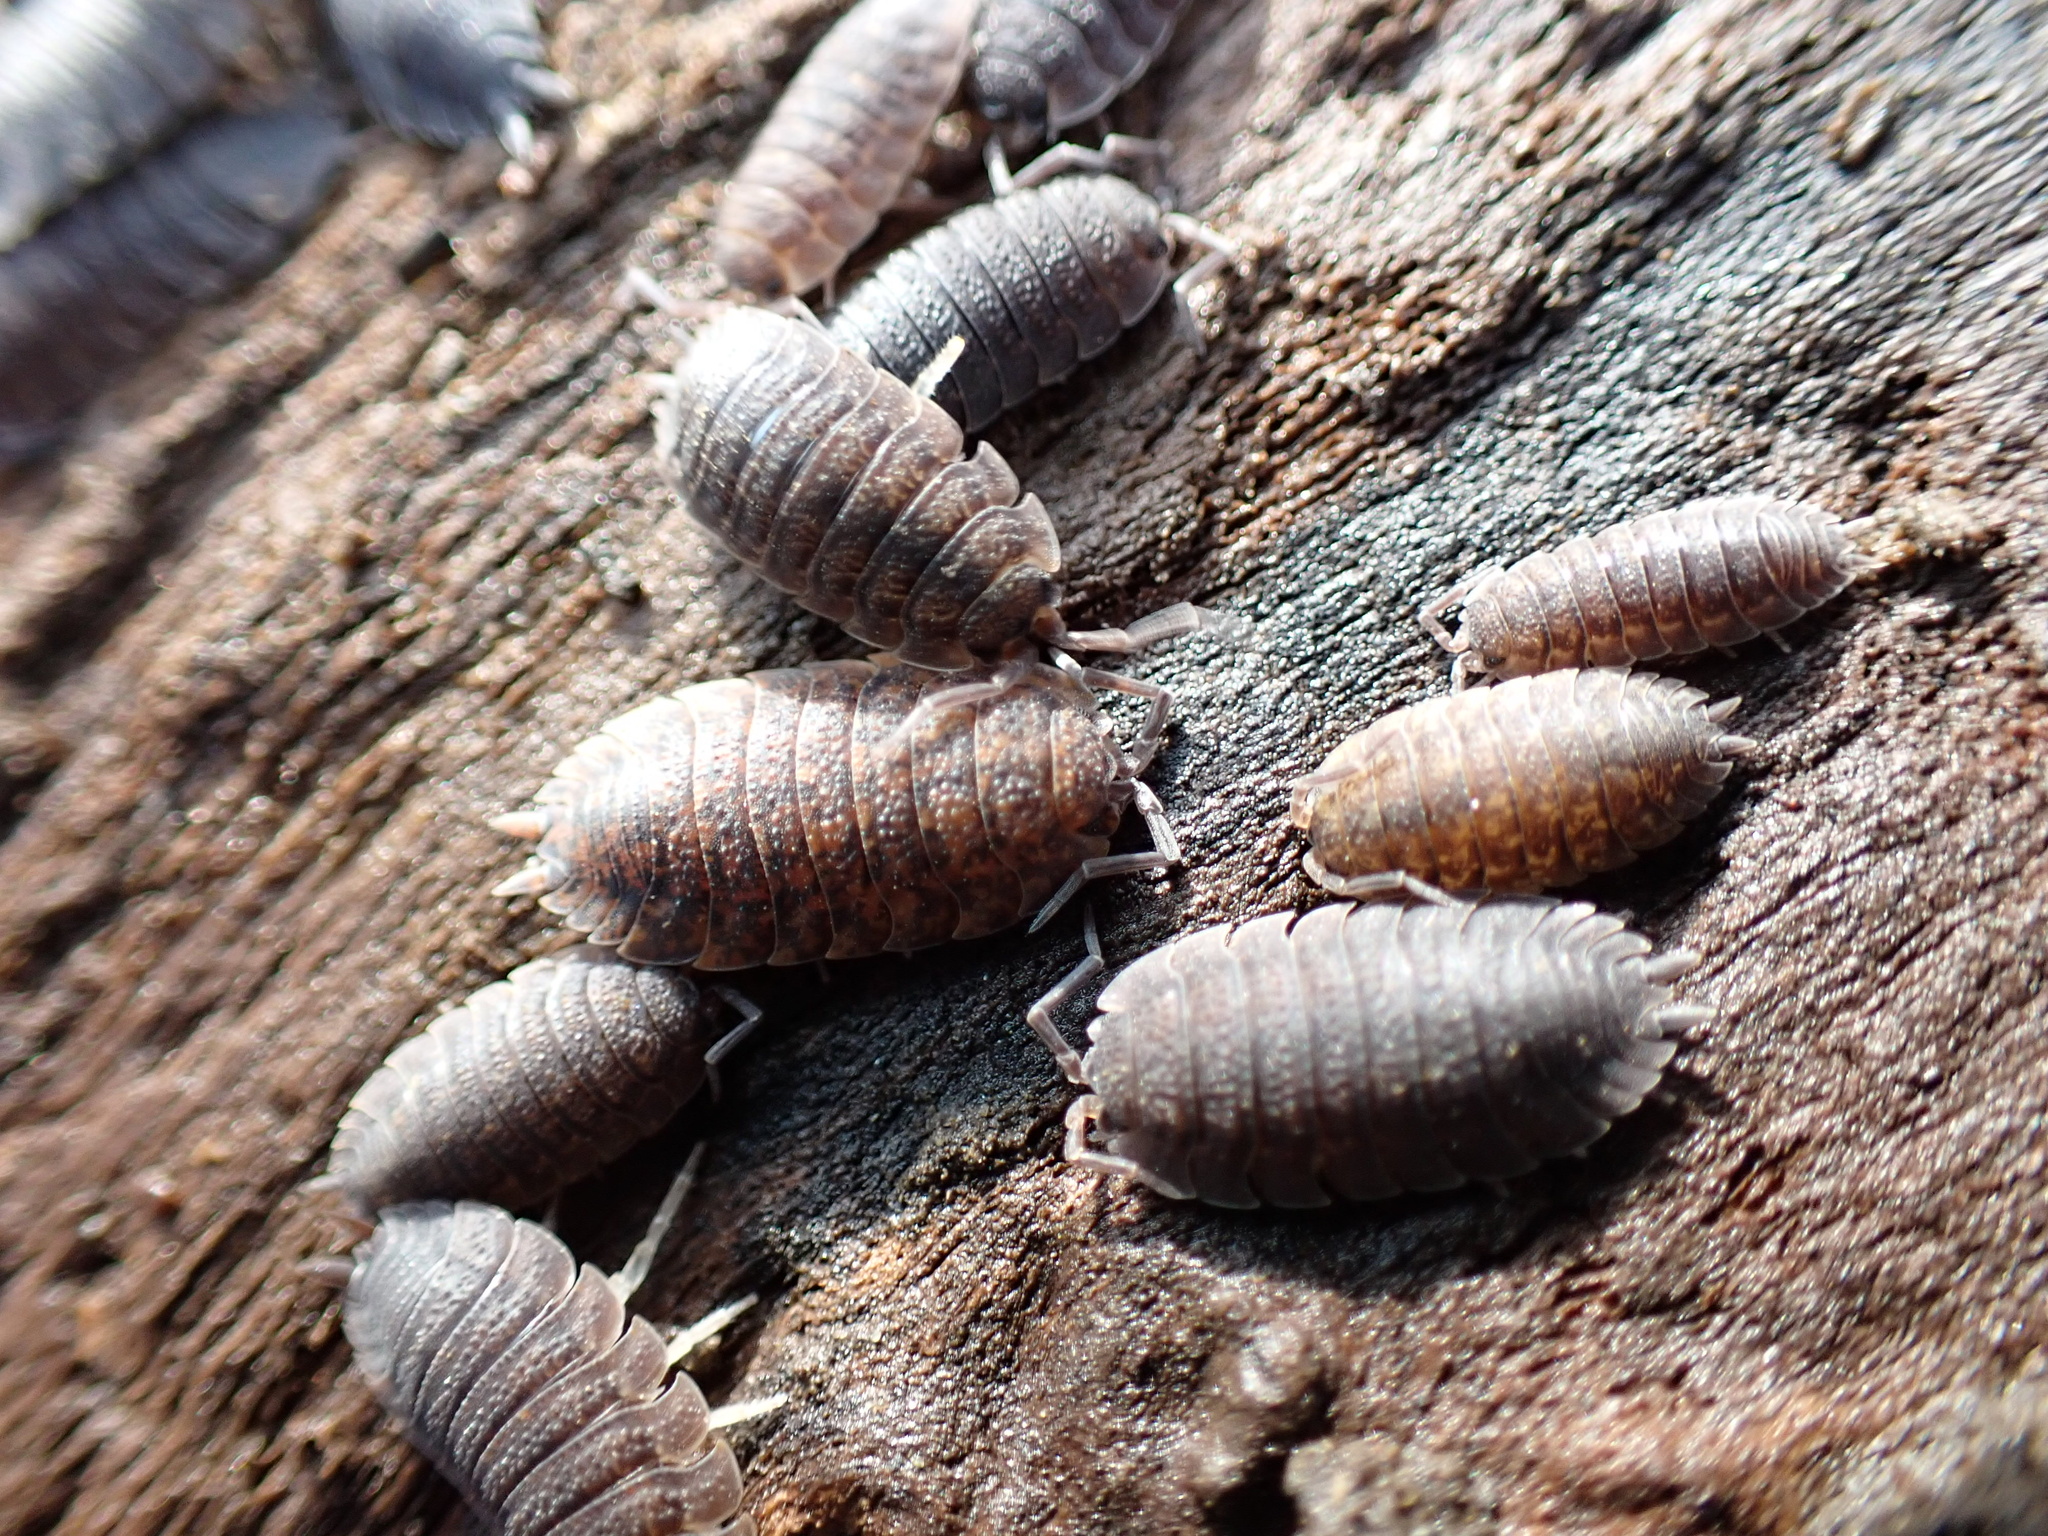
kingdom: Animalia
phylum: Arthropoda
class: Malacostraca
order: Isopoda
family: Porcellionidae
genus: Porcellio
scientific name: Porcellio scaber
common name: Common rough woodlouse
